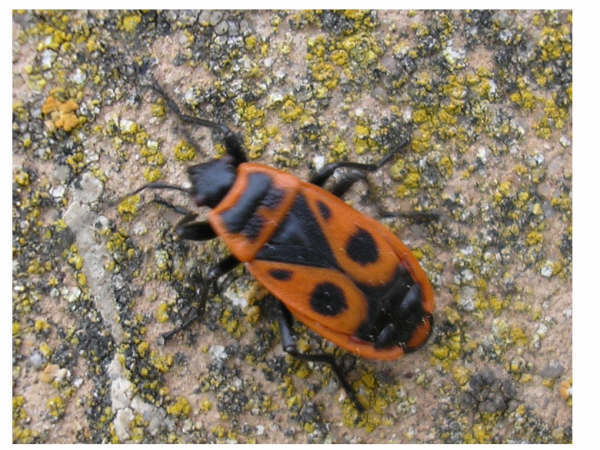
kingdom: Animalia
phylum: Arthropoda
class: Insecta
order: Hemiptera
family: Pyrrhocoridae
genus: Pyrrhocoris
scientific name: Pyrrhocoris apterus
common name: Firebug
